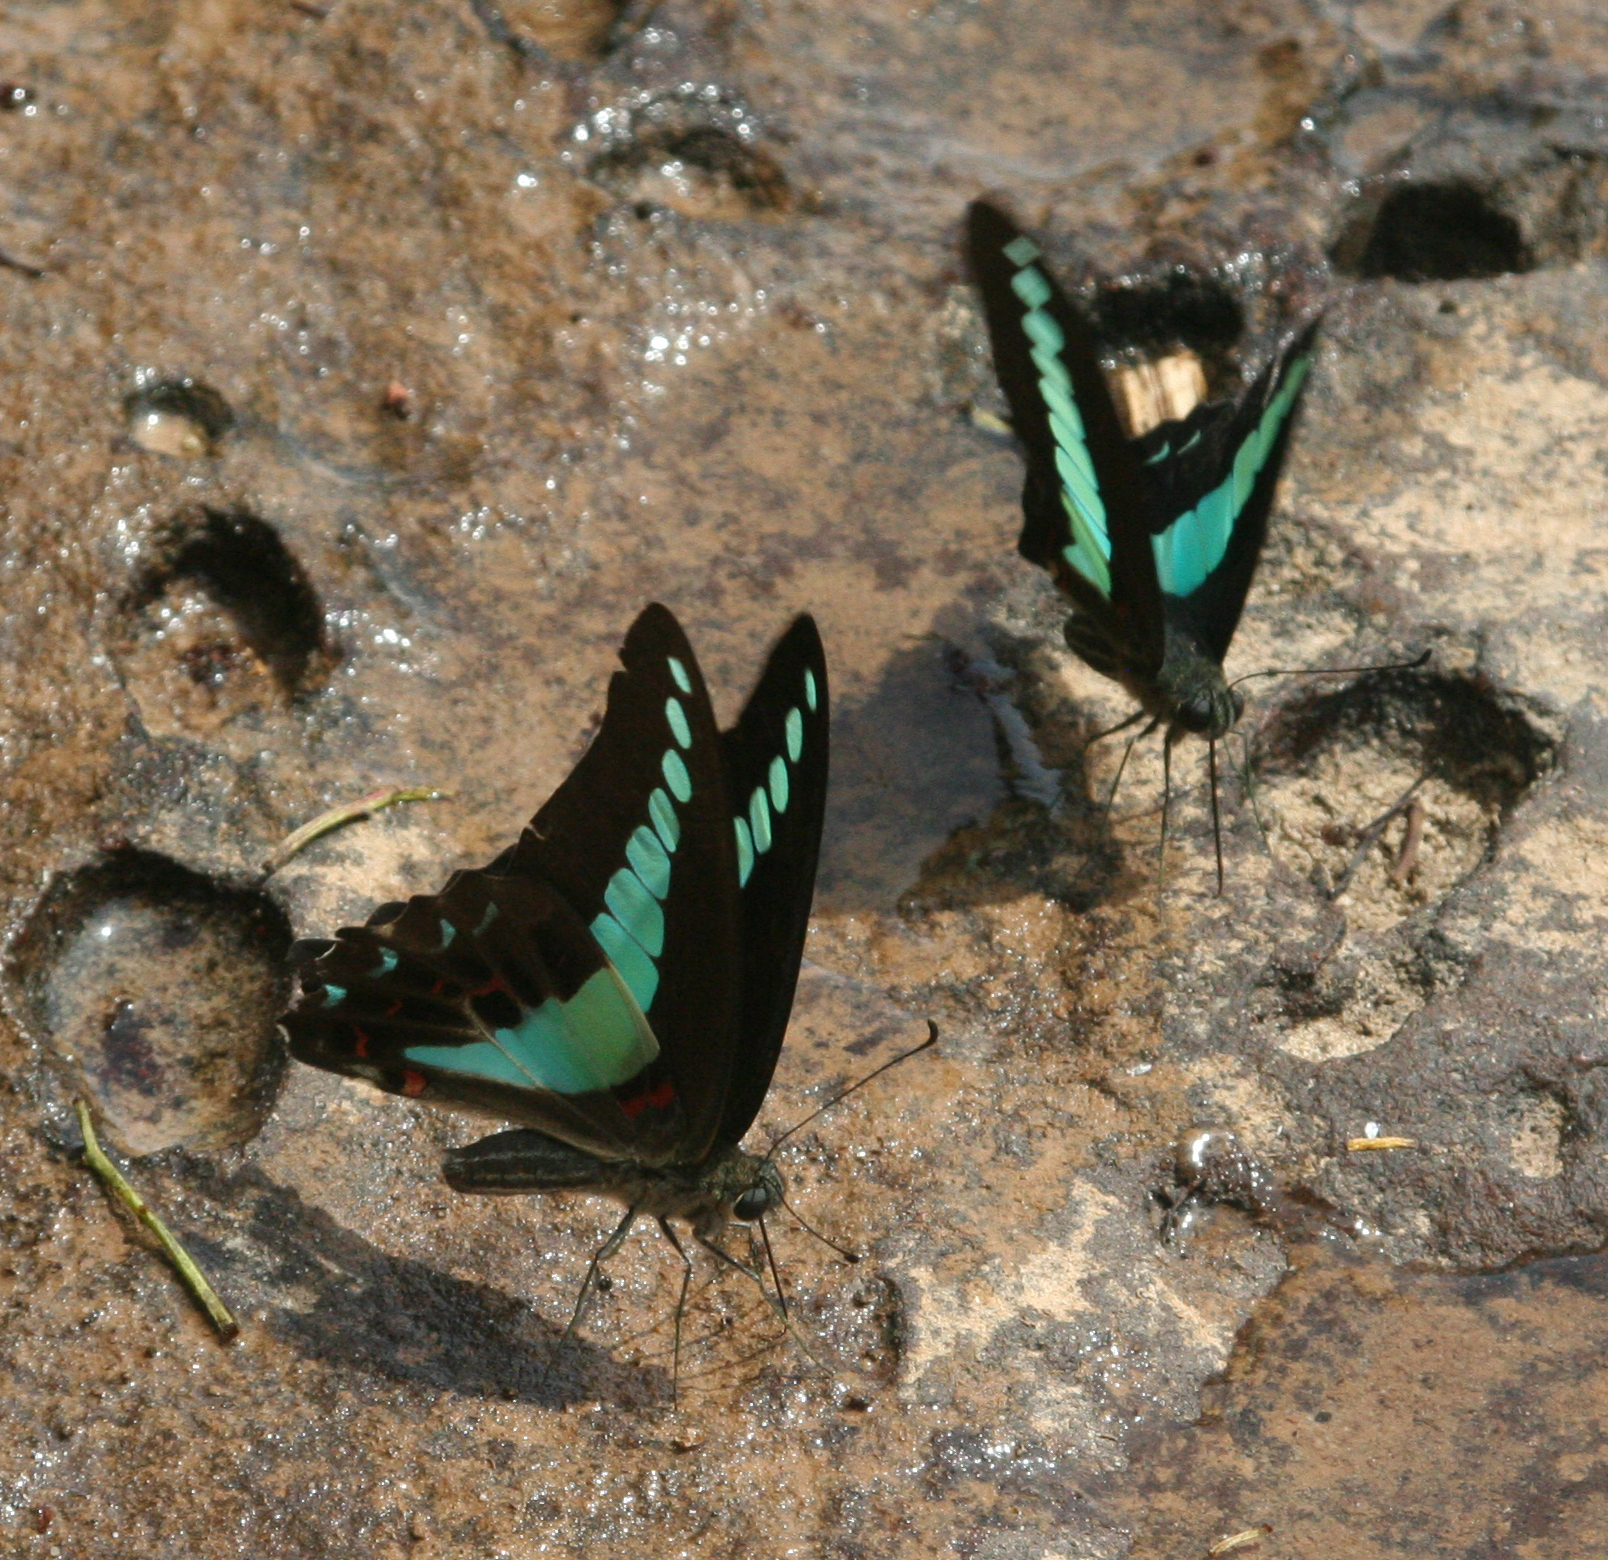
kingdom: Fungi
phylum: Ascomycota
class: Sordariomycetes
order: Microascales
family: Microascaceae
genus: Graphium
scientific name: Graphium sarpedon
